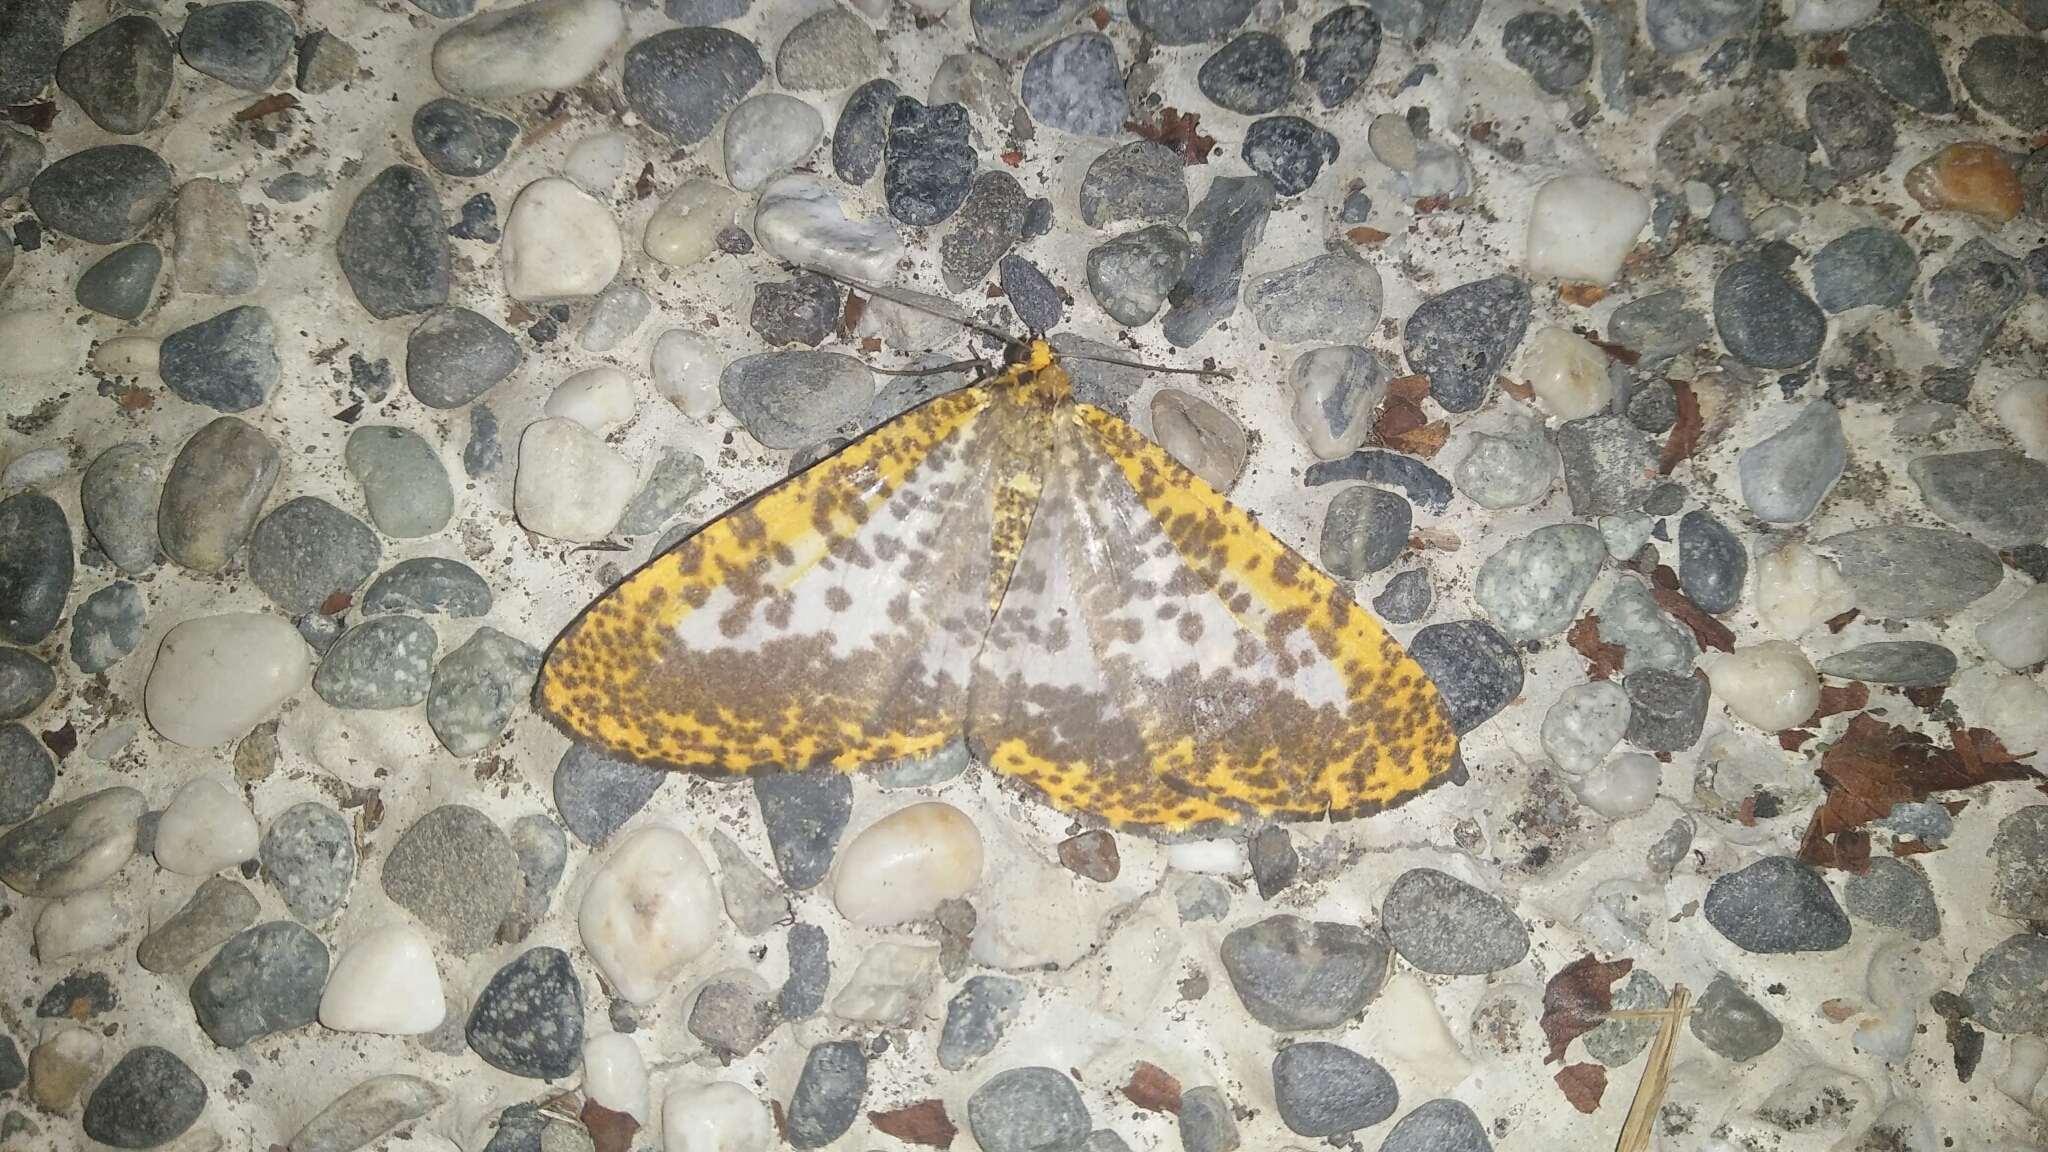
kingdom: Animalia
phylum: Arthropoda
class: Insecta
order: Lepidoptera
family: Geometridae
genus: Obeidia
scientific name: Obeidia Epobeidia lucifera
